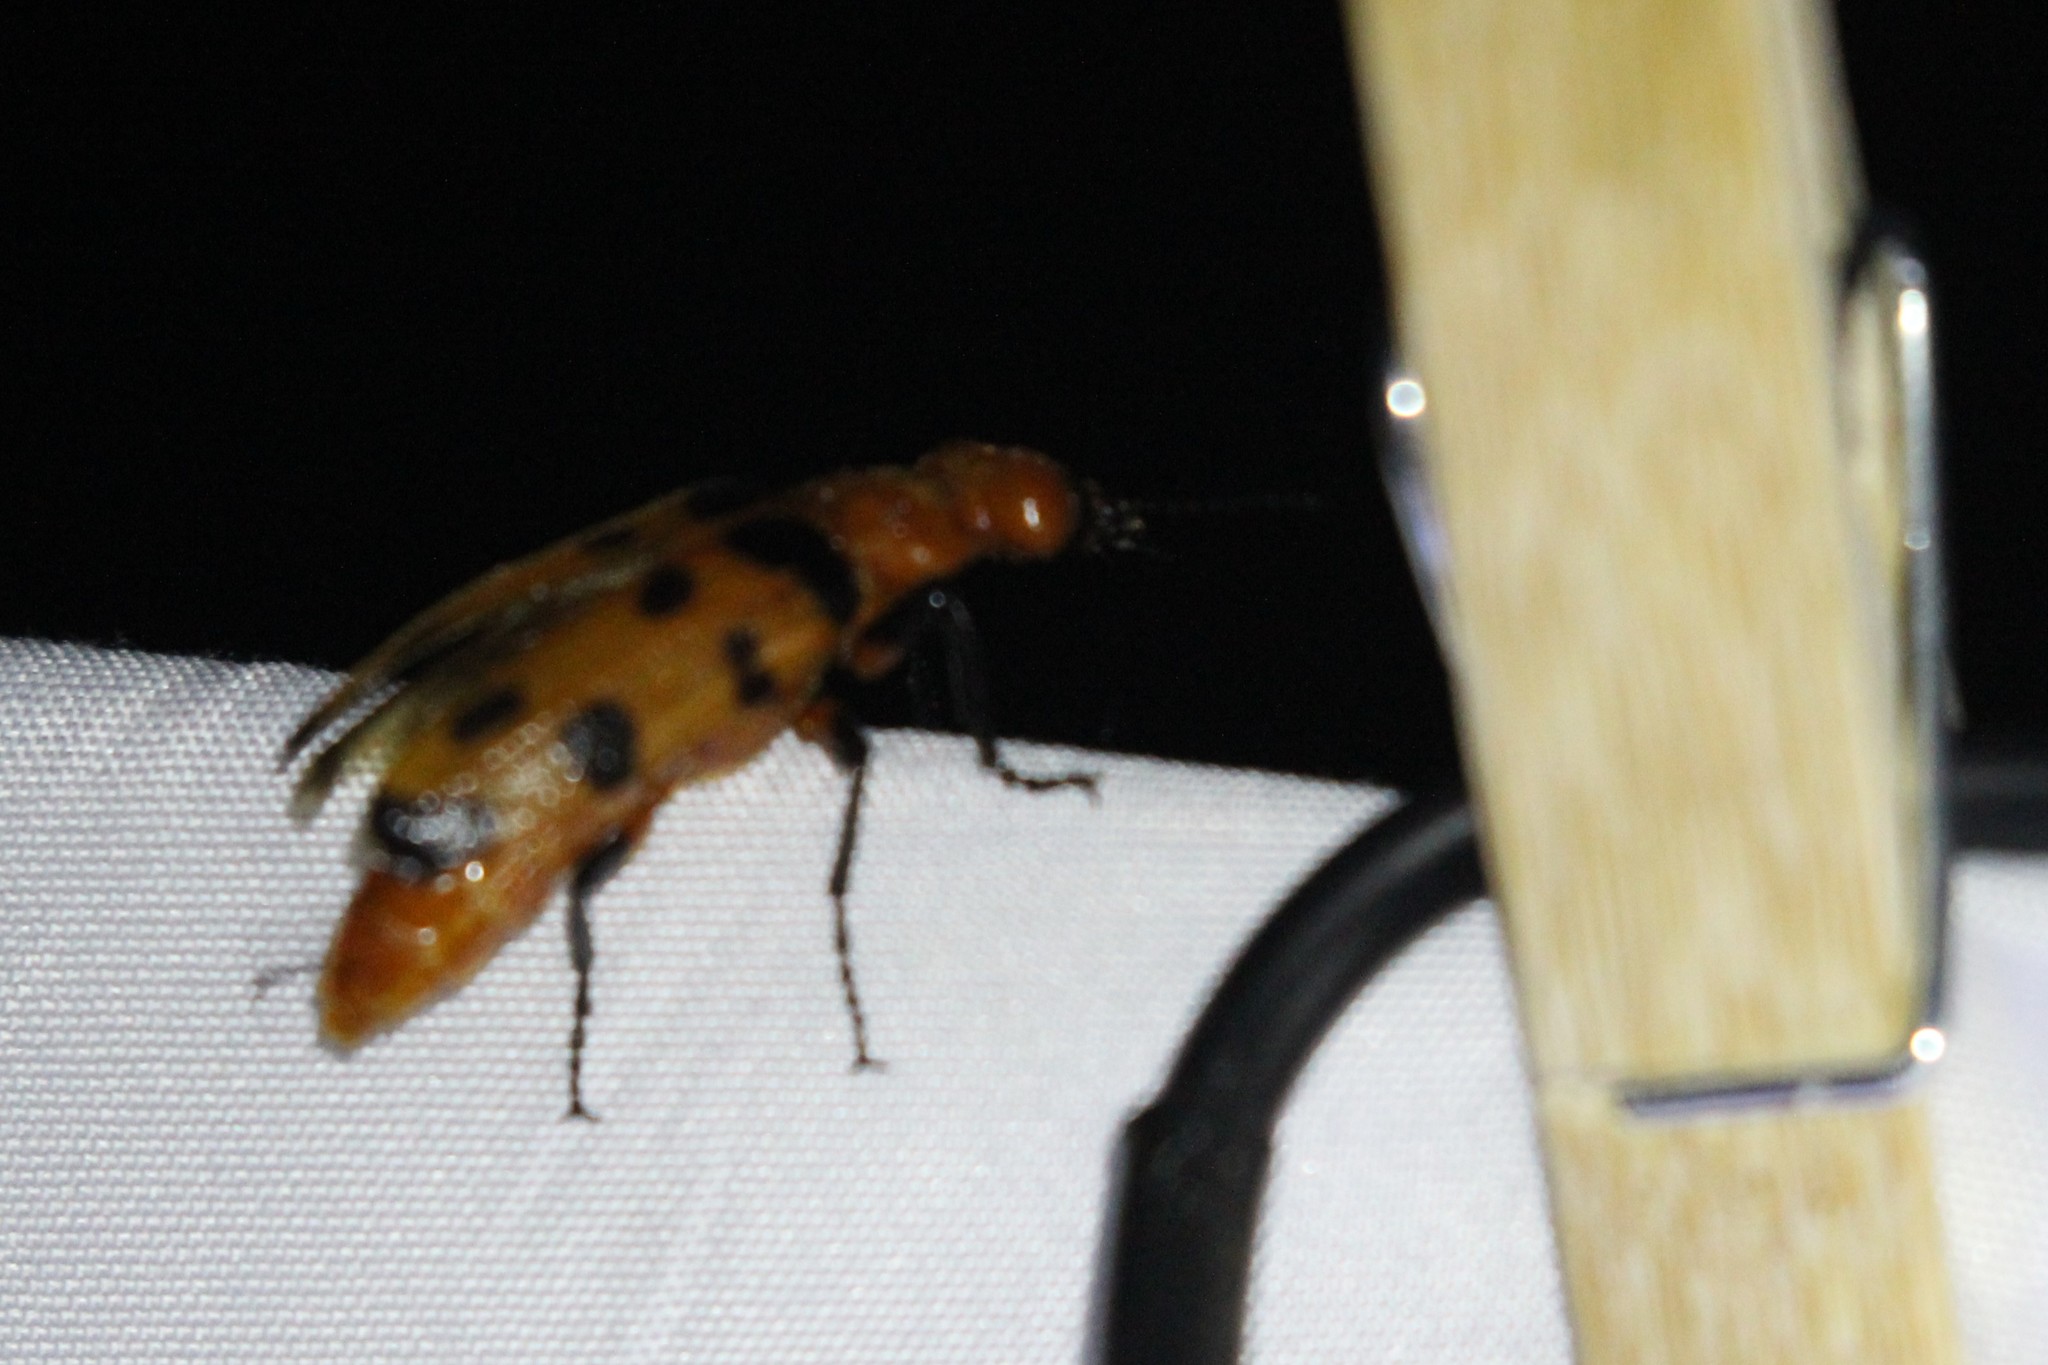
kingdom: Animalia
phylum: Arthropoda
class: Insecta
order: Coleoptera
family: Meloidae
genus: Cissites
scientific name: Cissites auriculata
